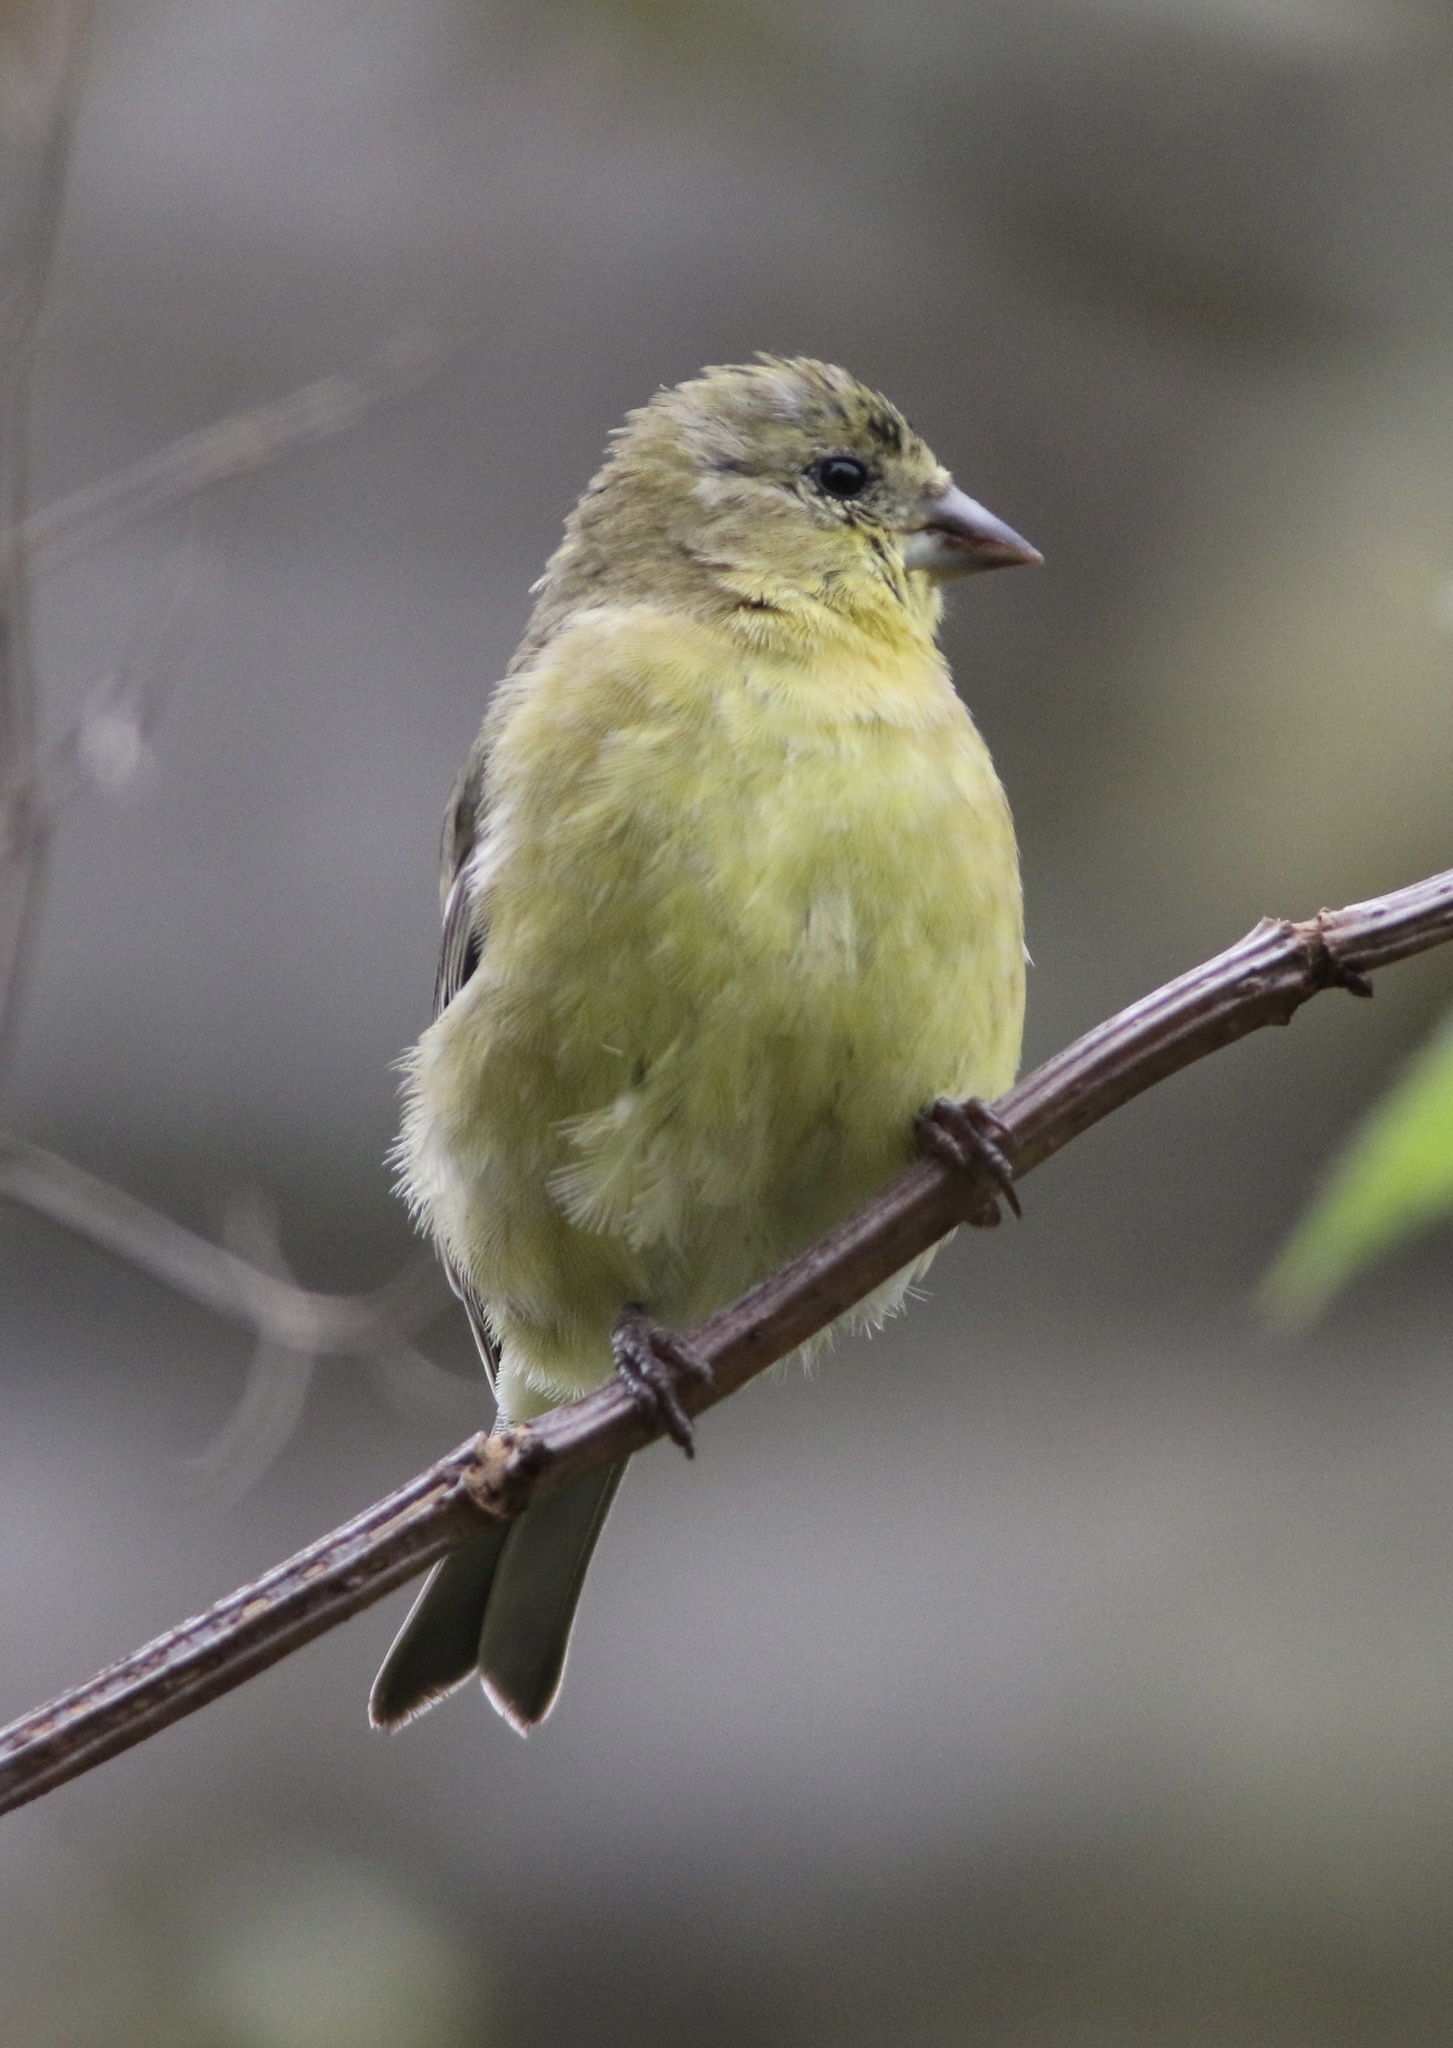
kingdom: Animalia
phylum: Chordata
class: Aves
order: Passeriformes
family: Fringillidae
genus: Spinus
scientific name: Spinus psaltria
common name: Lesser goldfinch
